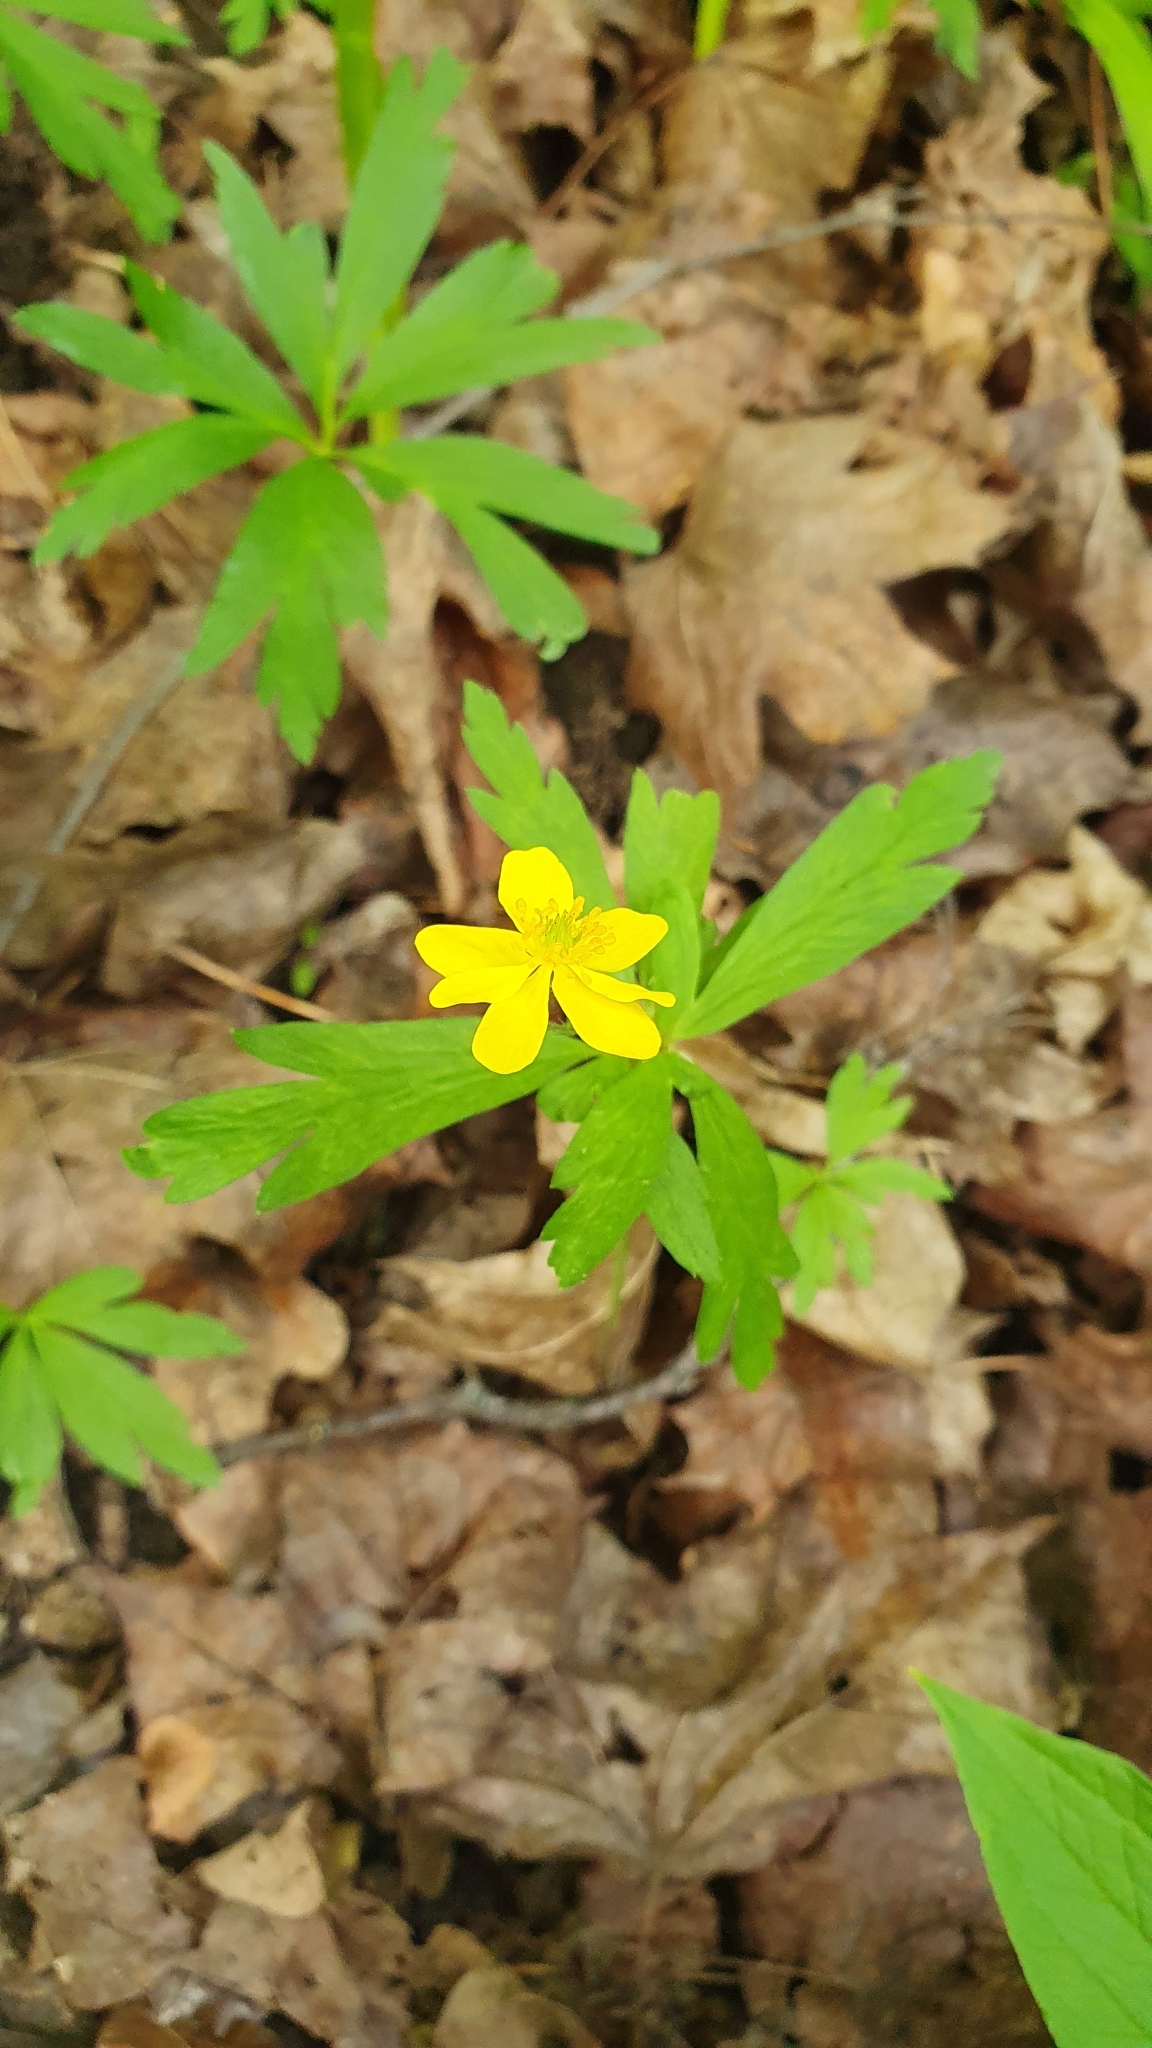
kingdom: Plantae
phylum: Tracheophyta
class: Magnoliopsida
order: Ranunculales
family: Ranunculaceae
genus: Anemone
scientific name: Anemone ranunculoides
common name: Yellow anemone
